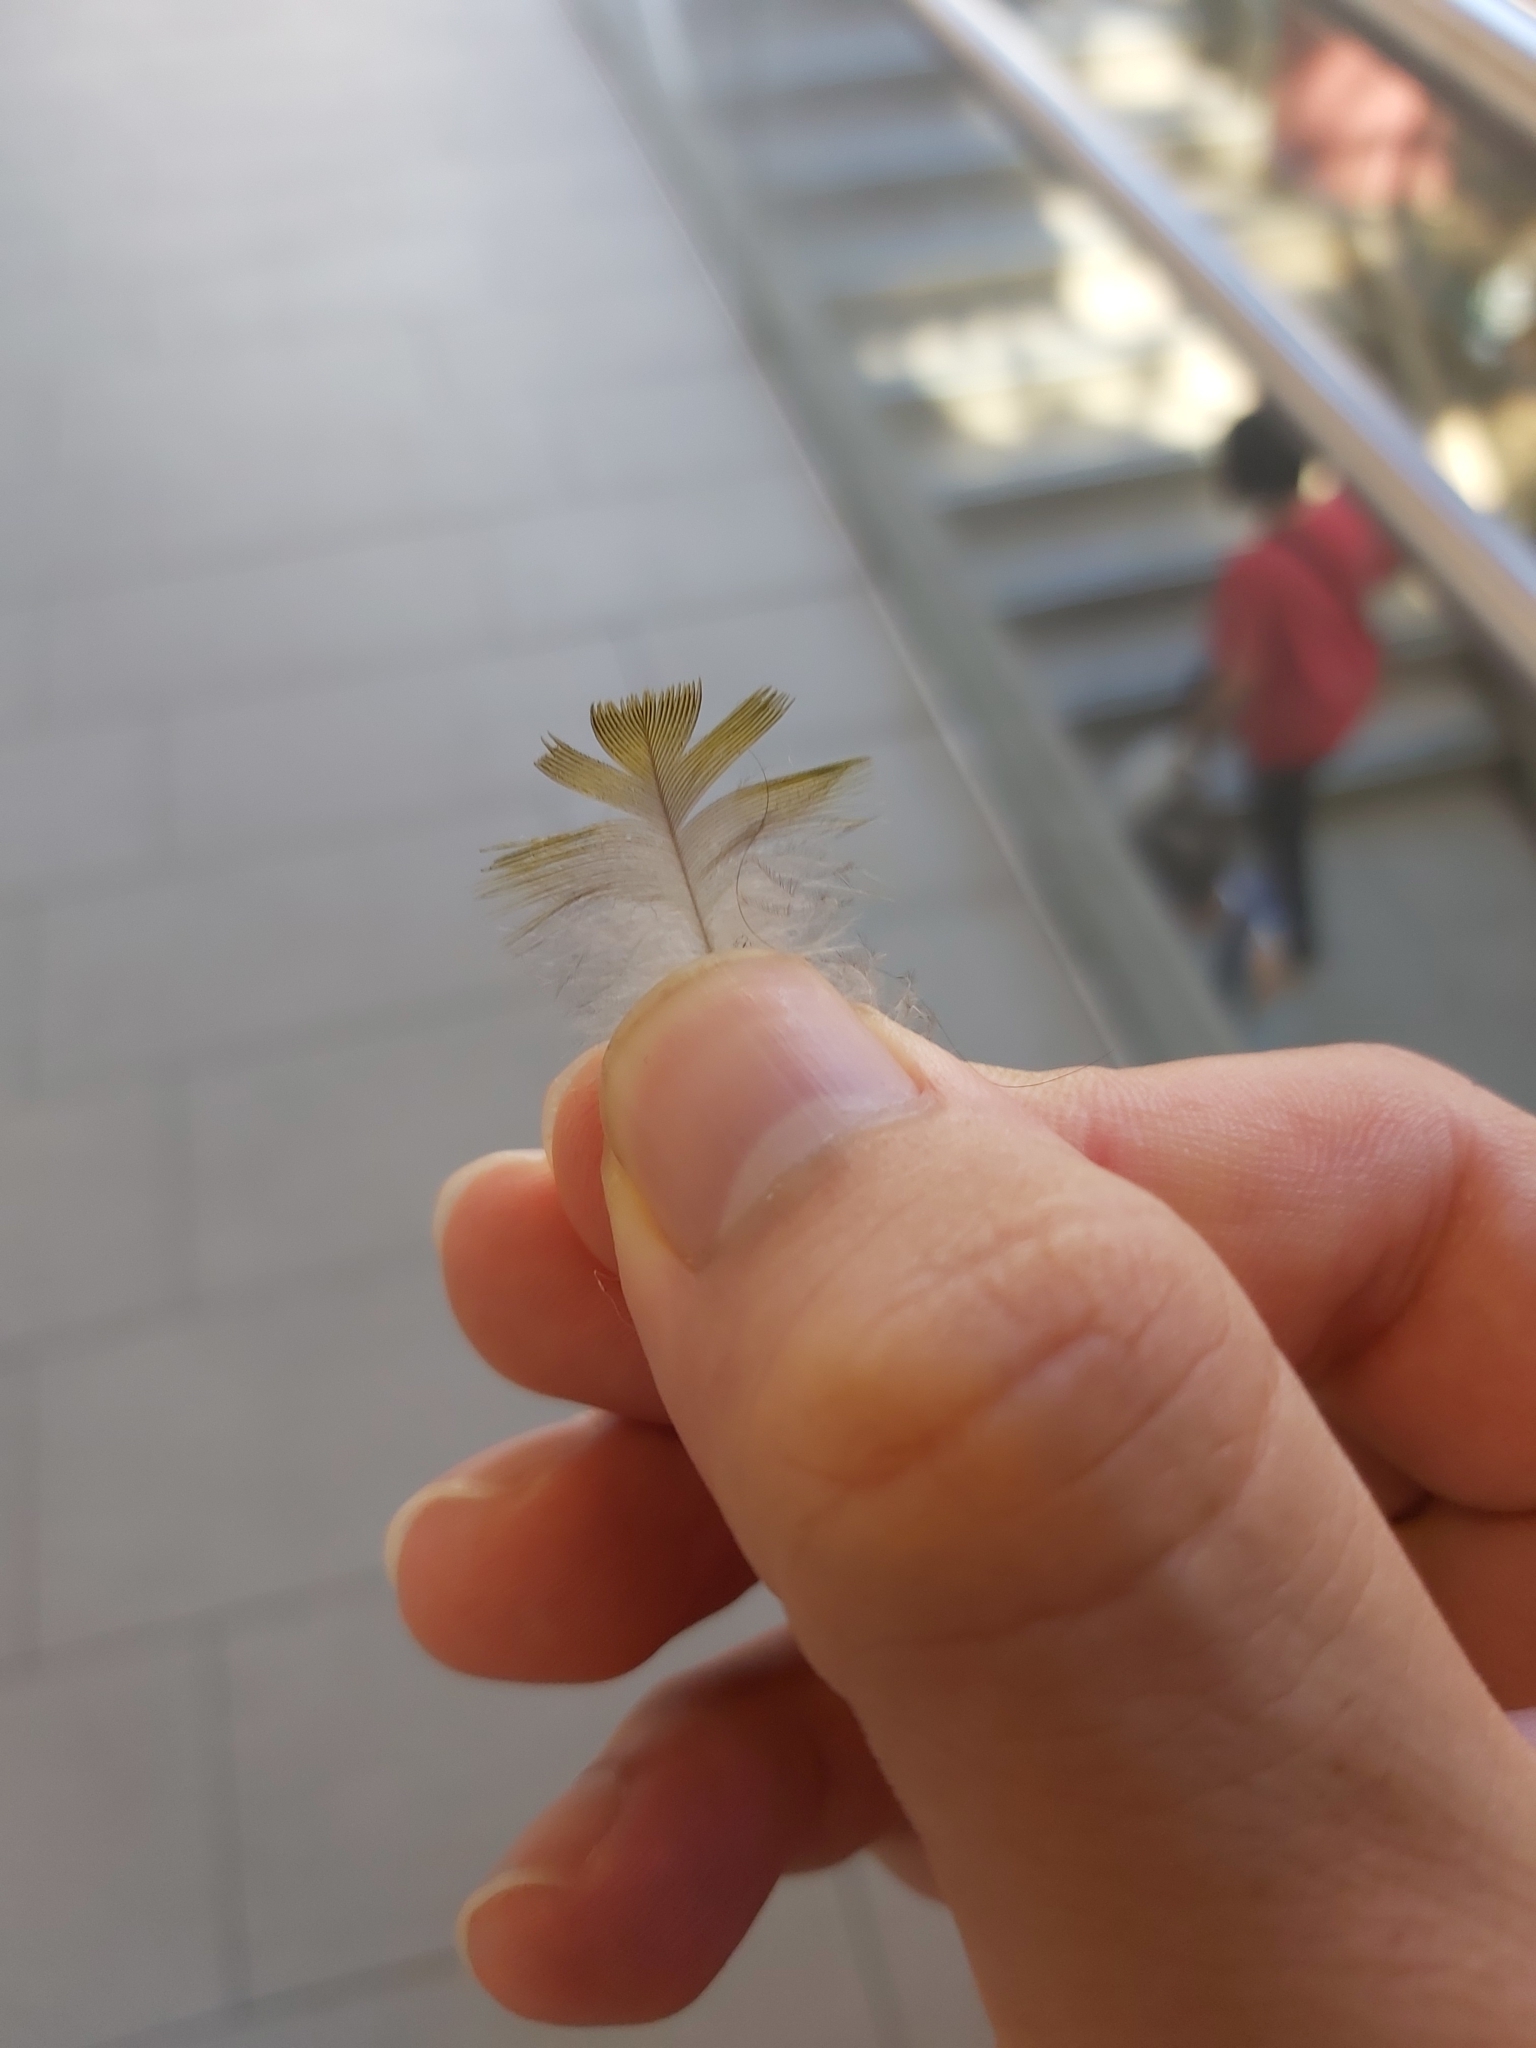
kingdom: Animalia
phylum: Chordata
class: Aves
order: Psittaciformes
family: Psittacidae
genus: Trichoglossus
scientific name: Trichoglossus haematodus
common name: Coconut lorikeet
